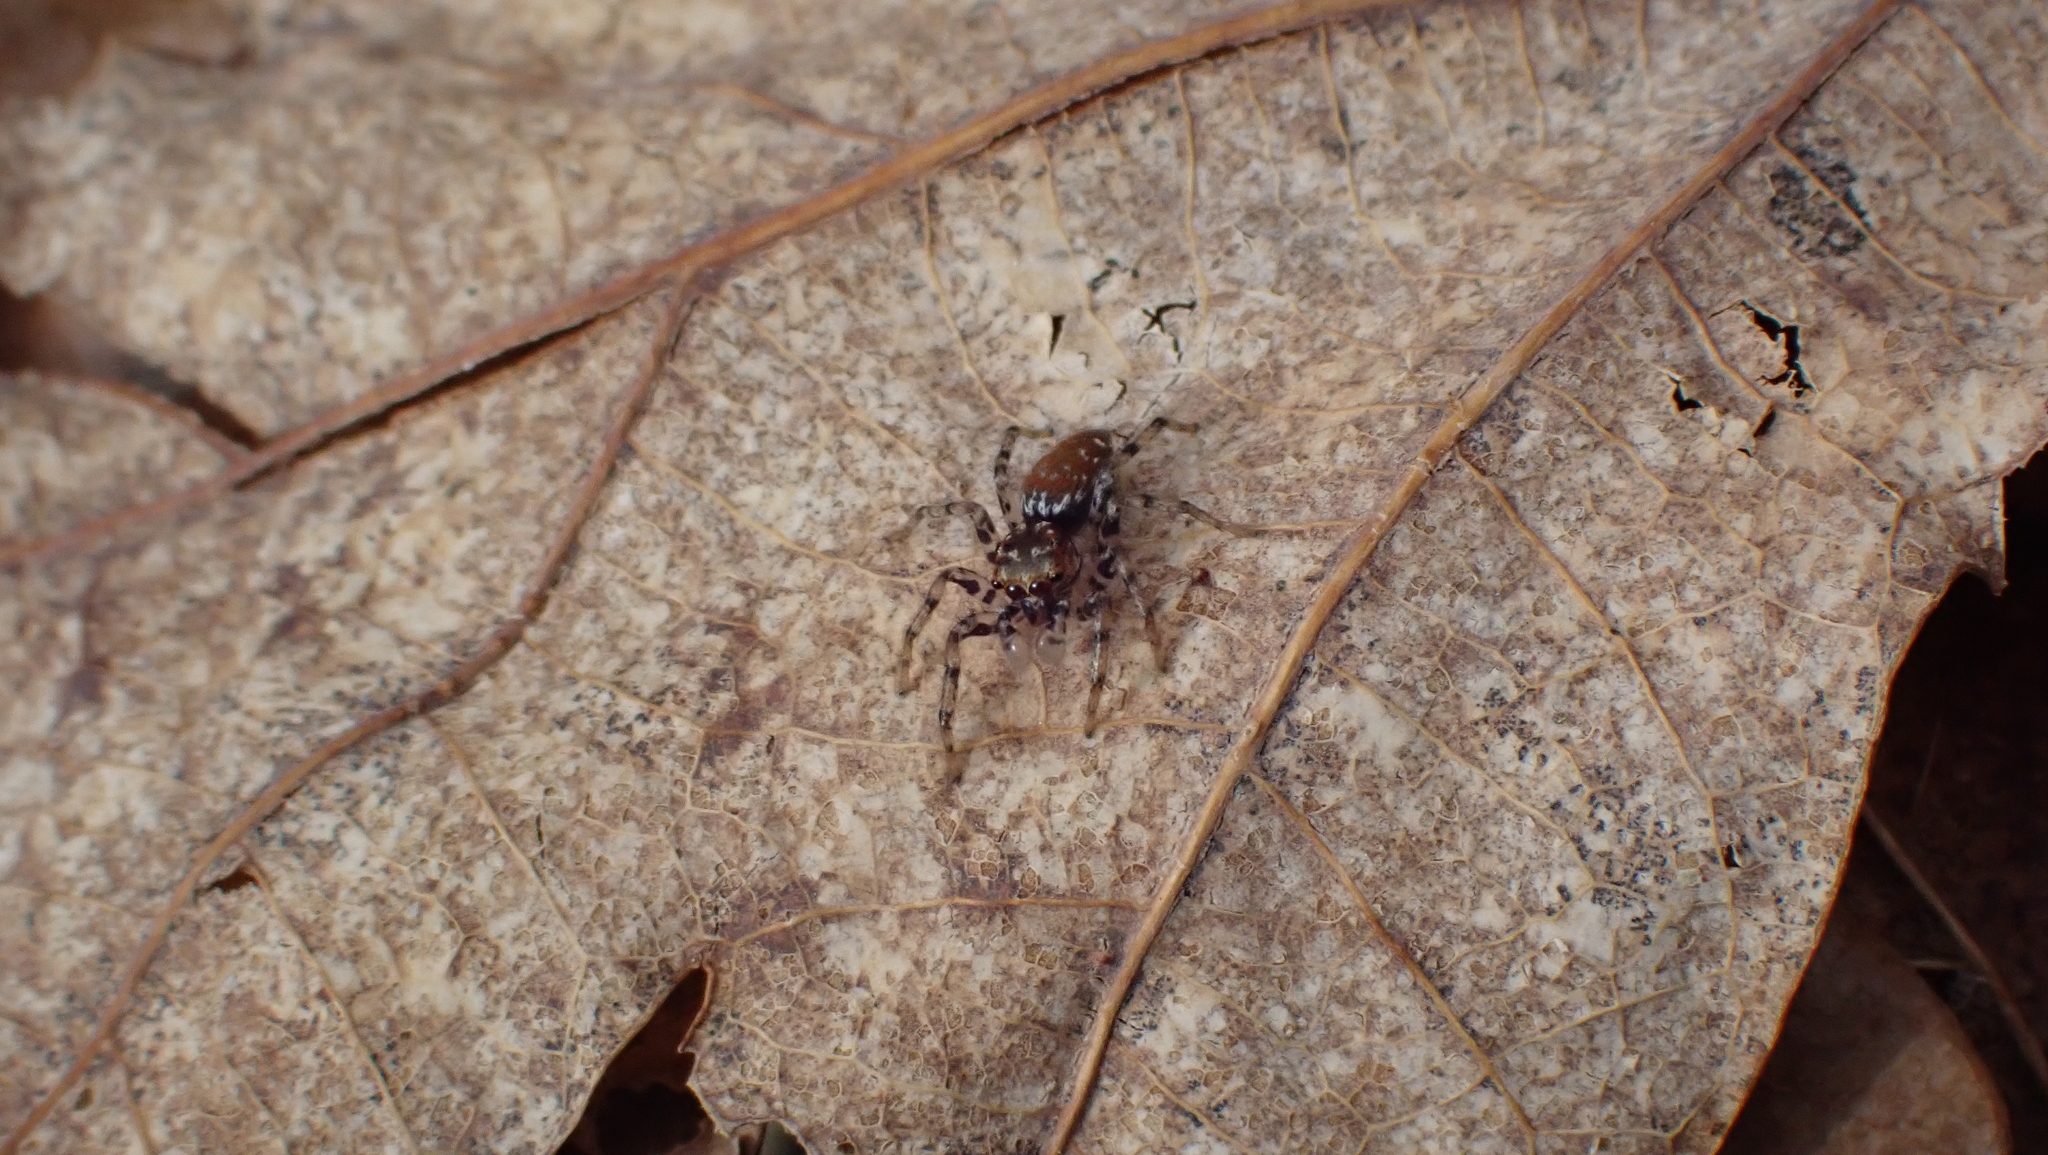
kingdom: Animalia
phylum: Arthropoda
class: Arachnida
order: Araneae
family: Salticidae
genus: Maevia
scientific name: Maevia inclemens
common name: Dimorphic jumper
